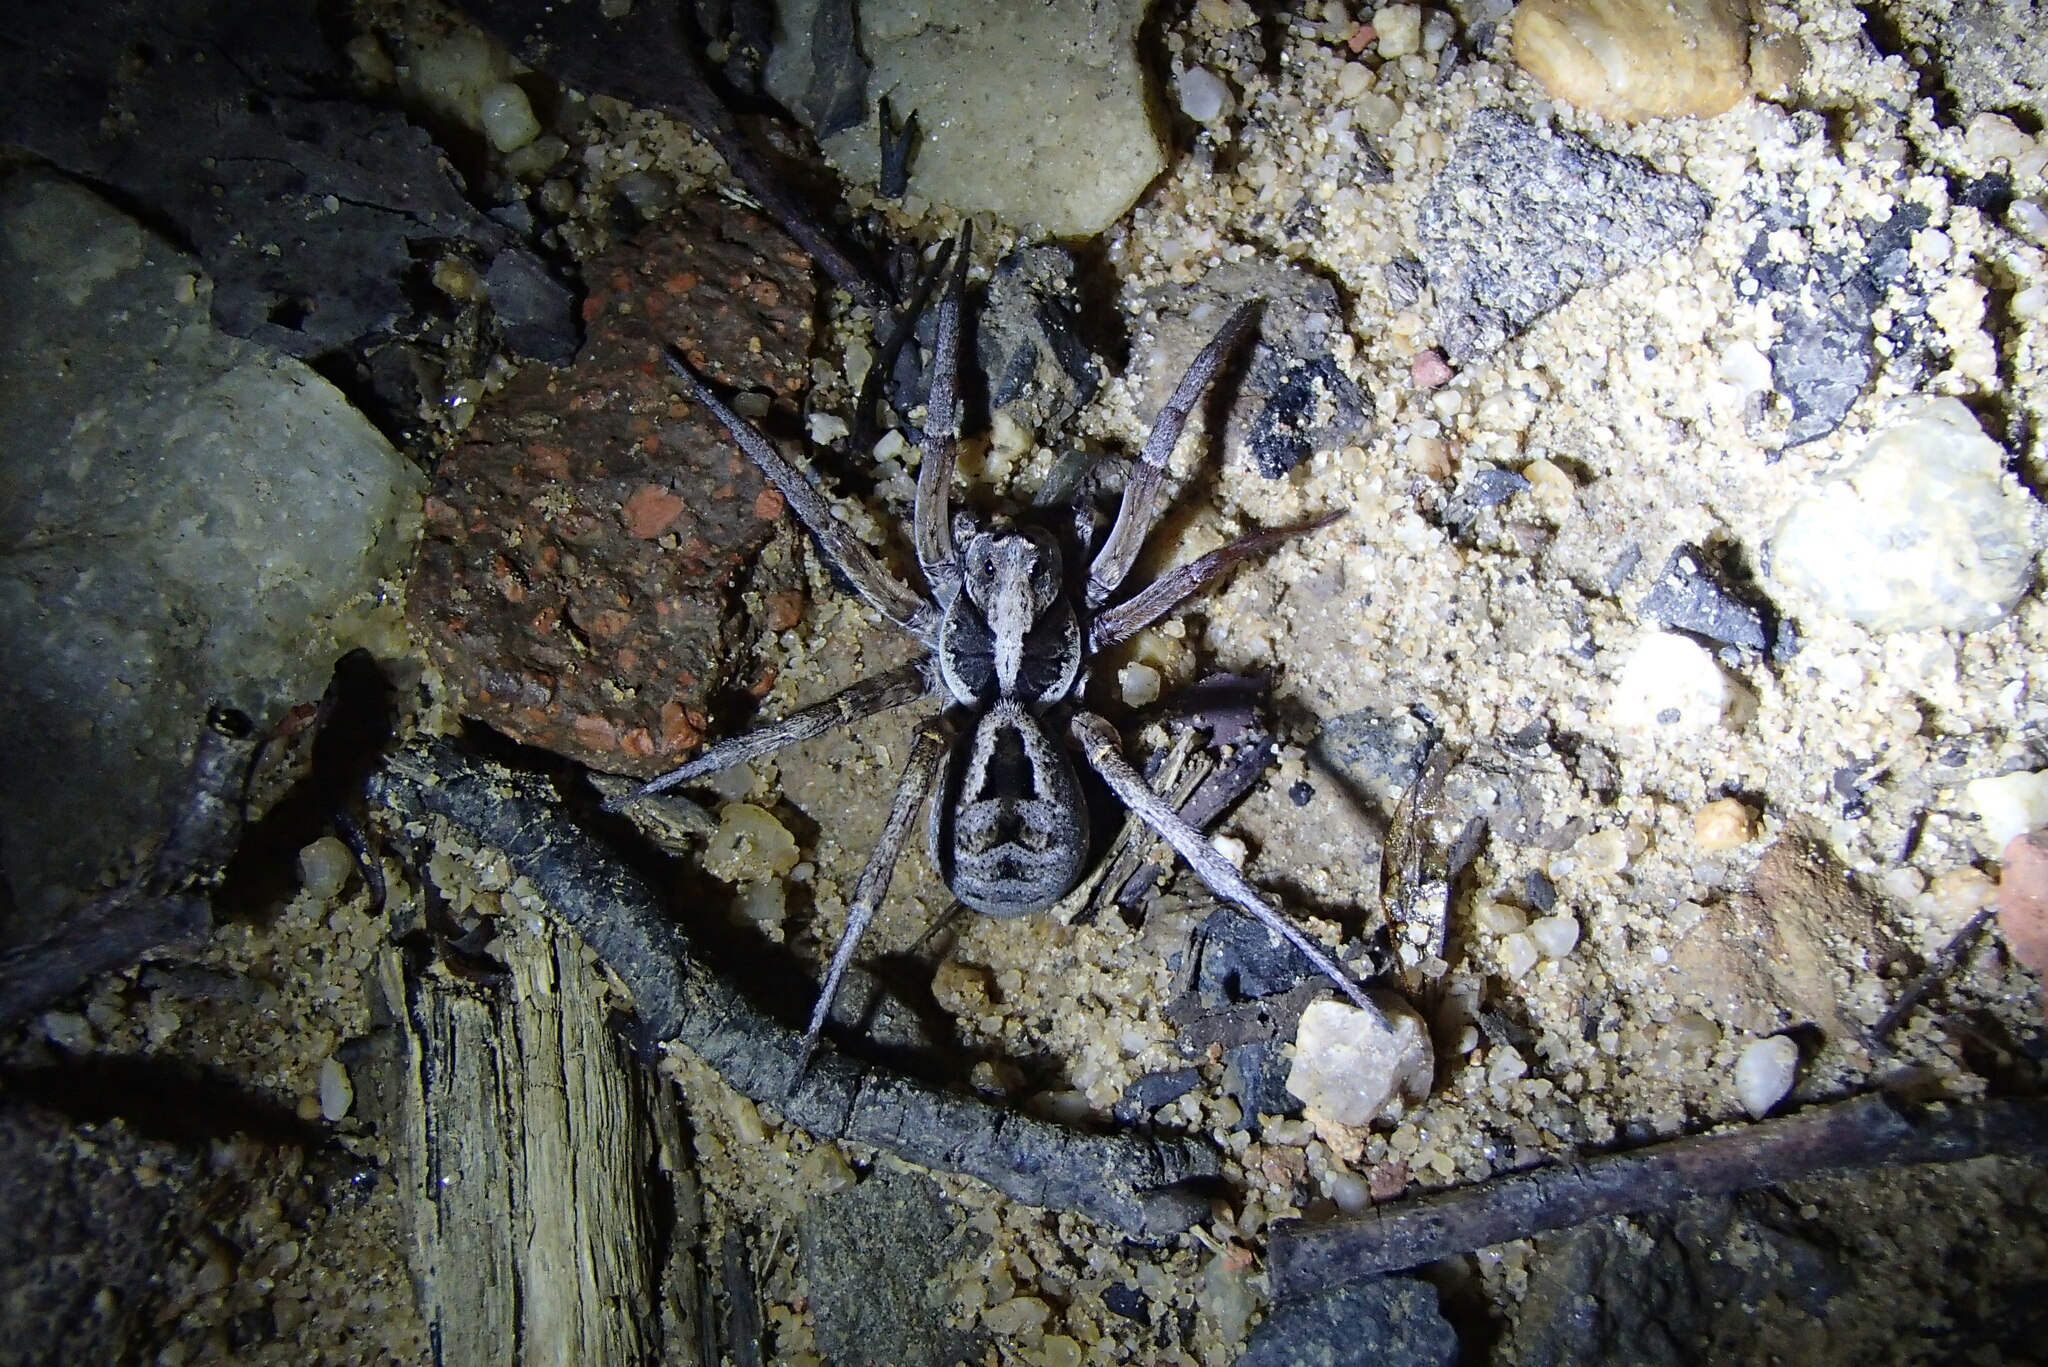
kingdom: Animalia
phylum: Arthropoda
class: Arachnida
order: Araneae
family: Lycosidae
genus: Venator
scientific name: Venator spenceri
